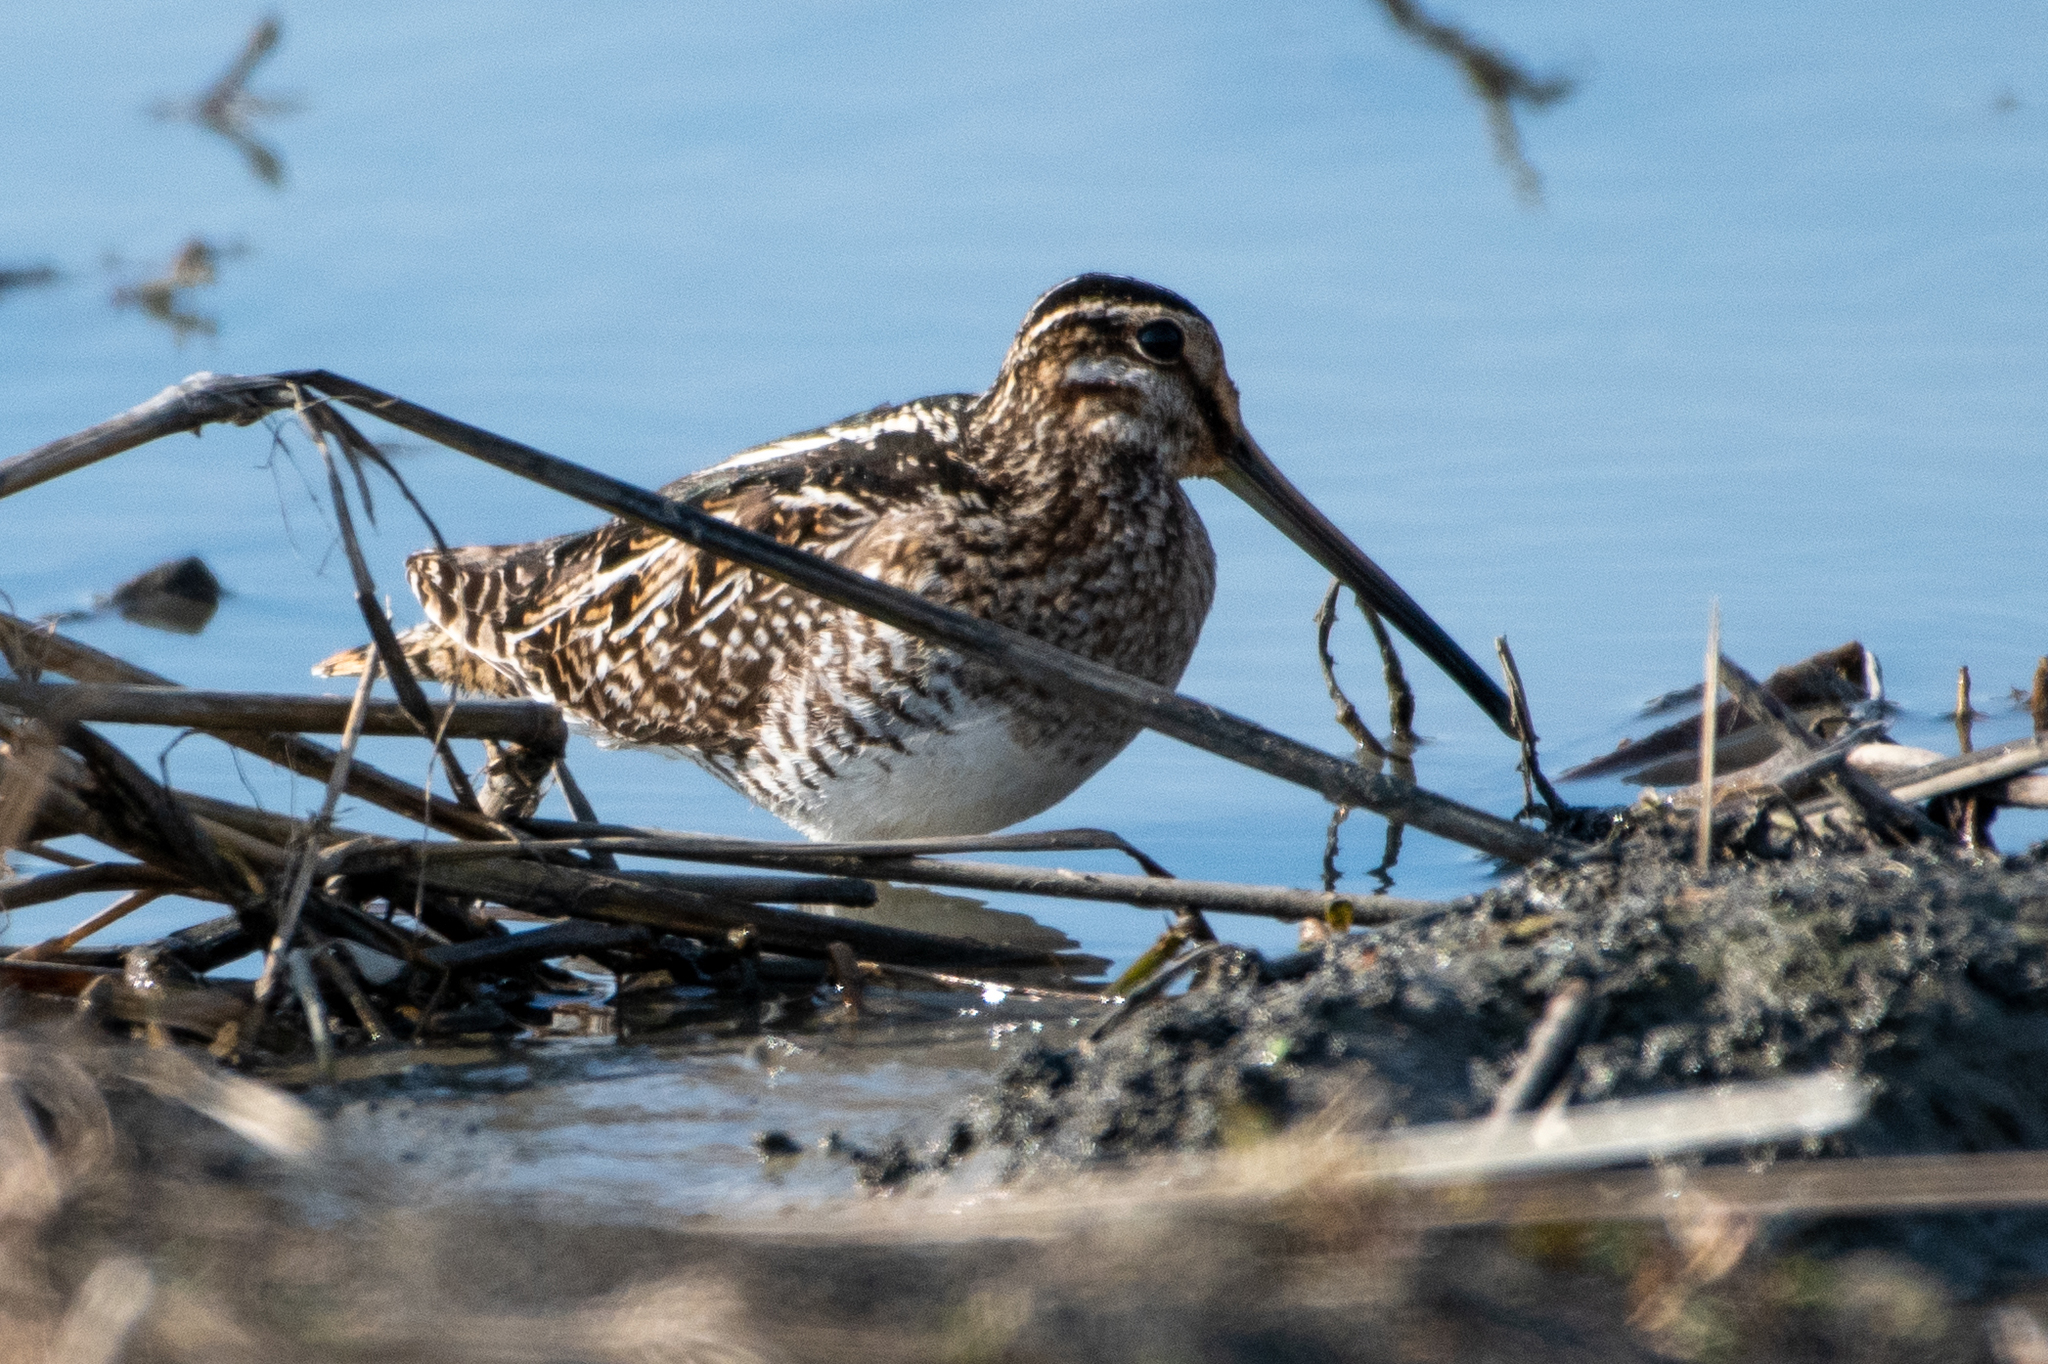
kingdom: Animalia
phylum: Chordata
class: Aves
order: Charadriiformes
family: Scolopacidae
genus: Gallinago
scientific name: Gallinago delicata
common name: Wilson's snipe
